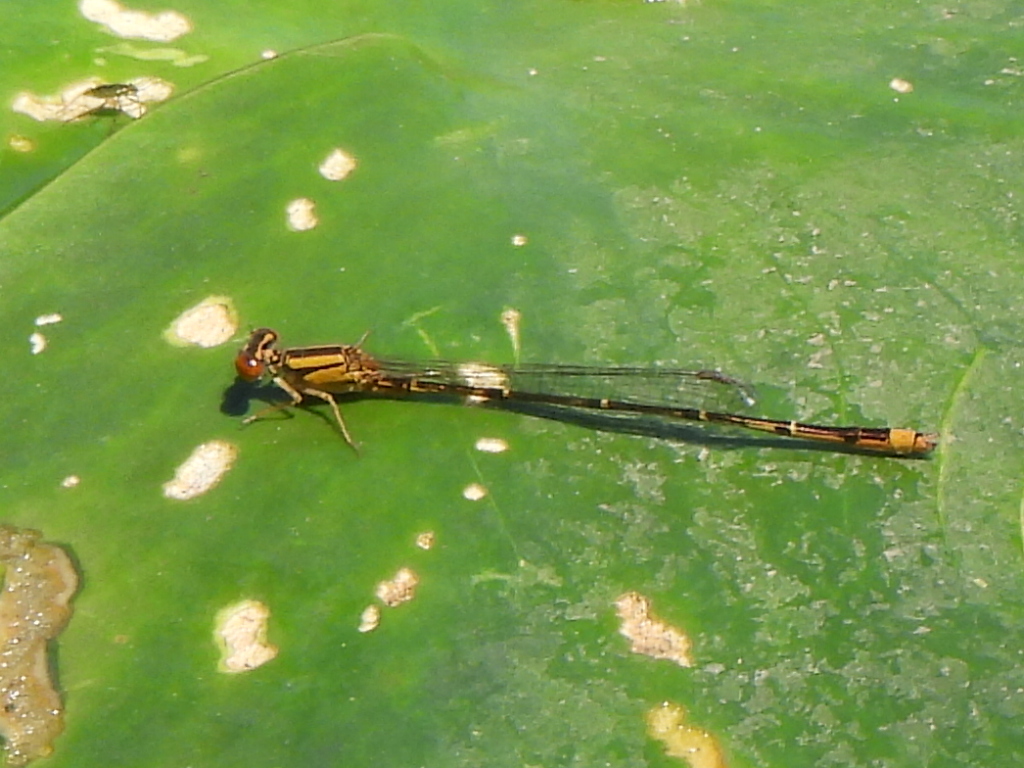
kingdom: Animalia
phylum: Arthropoda
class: Insecta
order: Odonata
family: Coenagrionidae
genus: Enallagma
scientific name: Enallagma signatum
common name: Orange bluet
